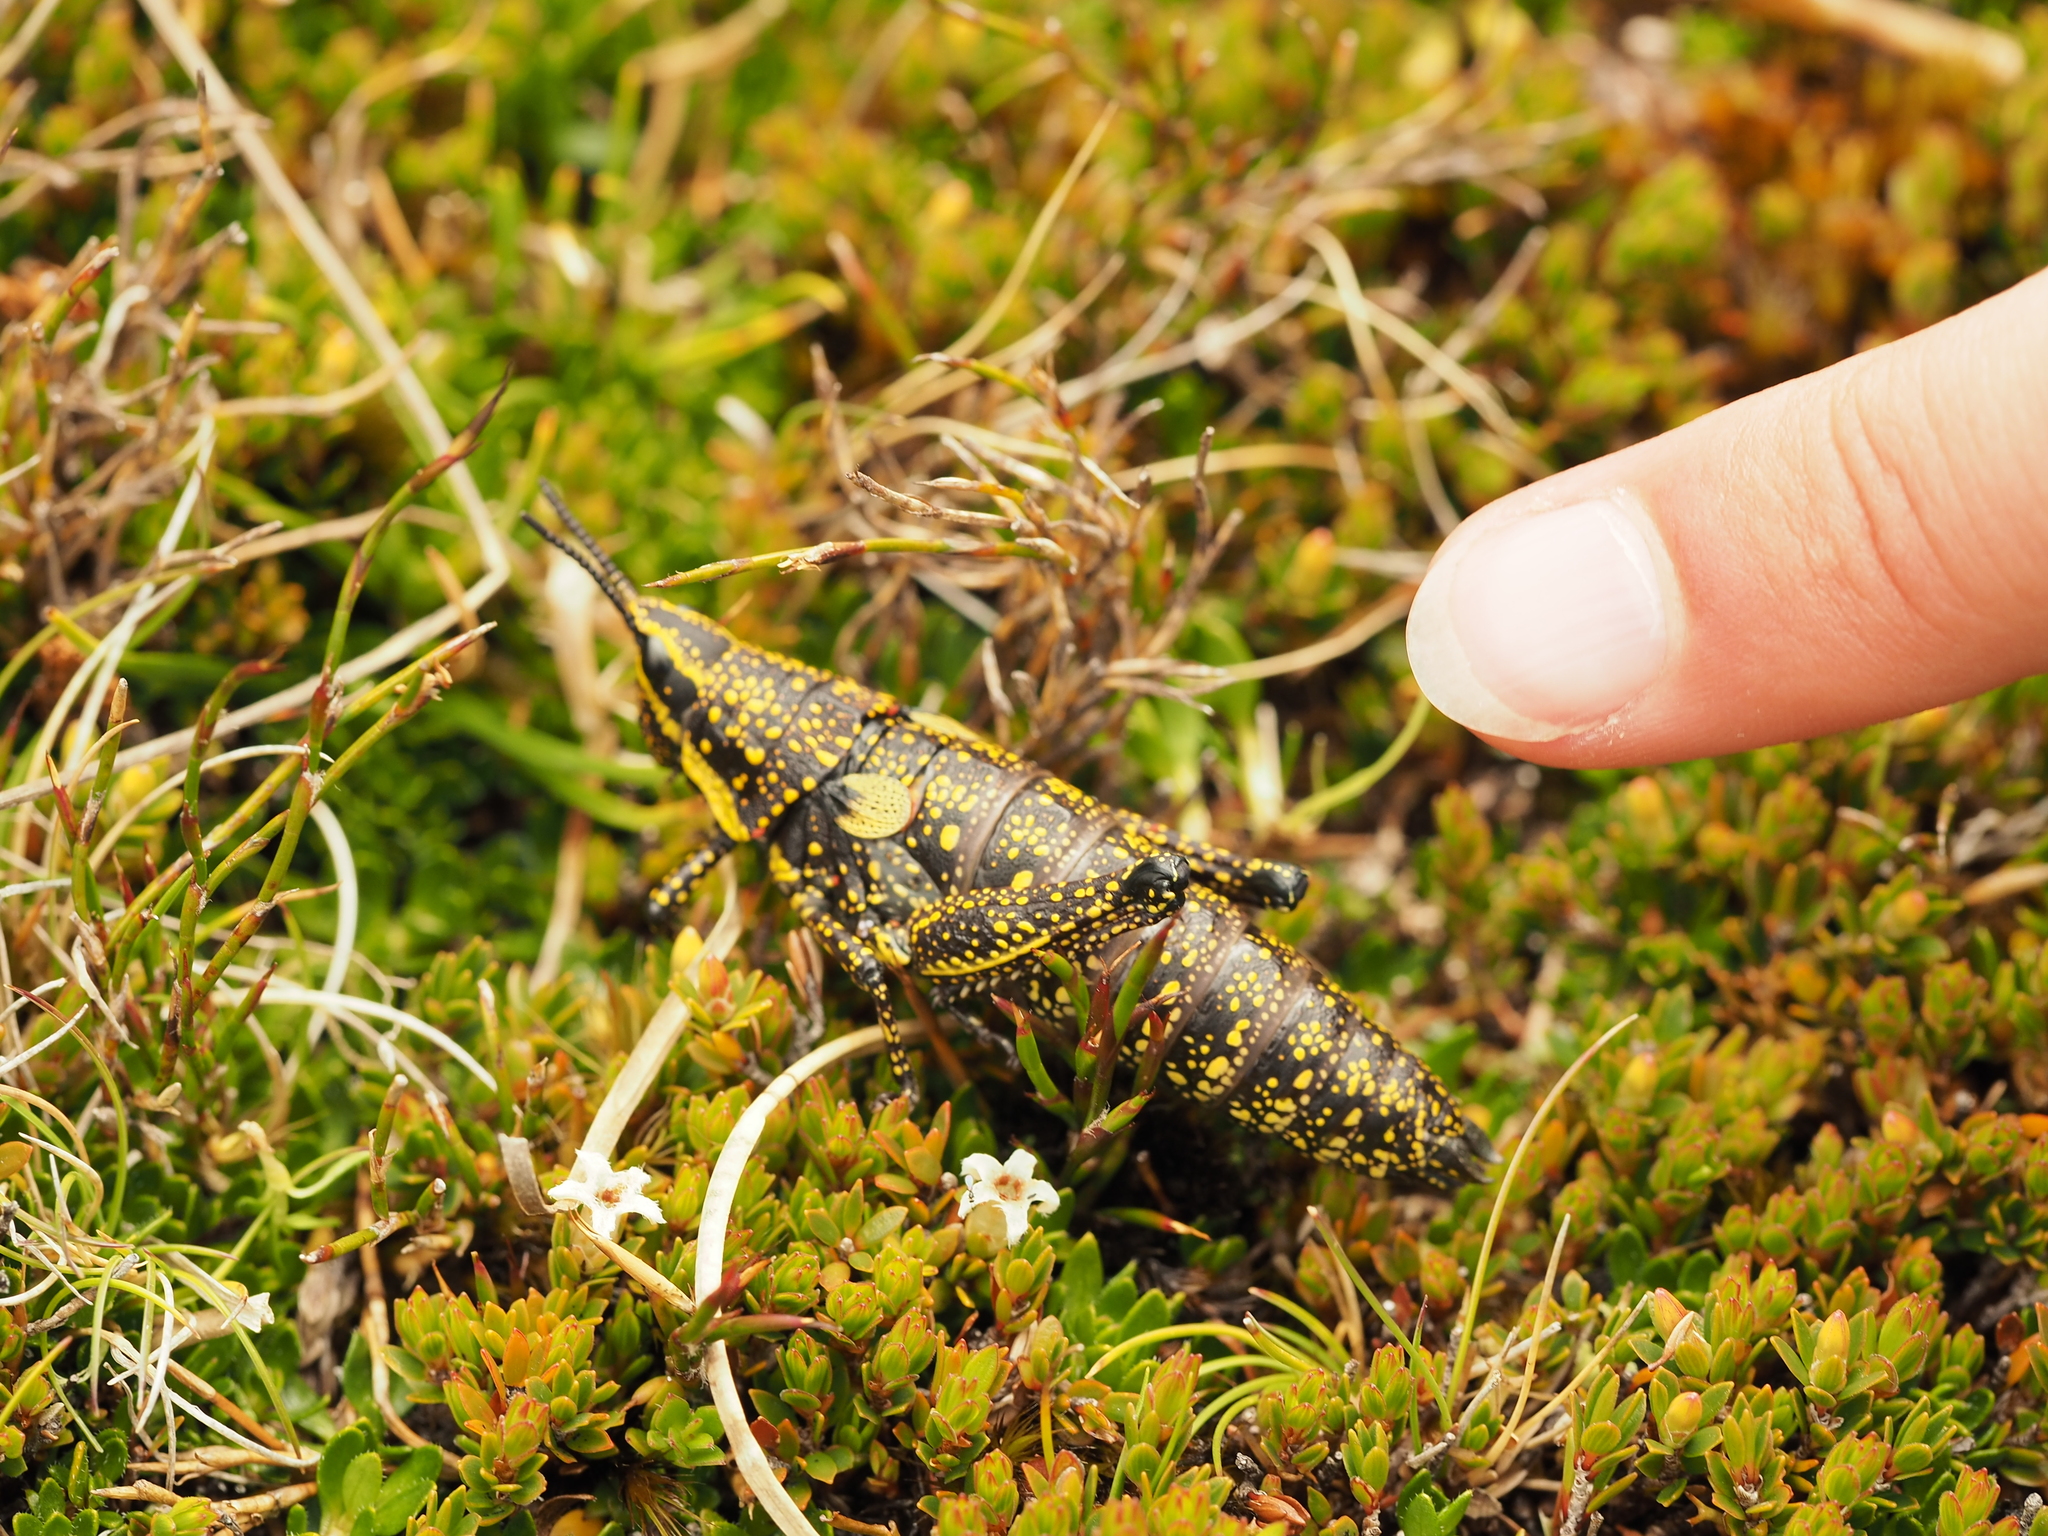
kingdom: Animalia
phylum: Arthropoda
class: Insecta
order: Orthoptera
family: Pyrgomorphidae
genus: Monistria
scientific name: Monistria concinna
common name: Southern pyrgomorph
